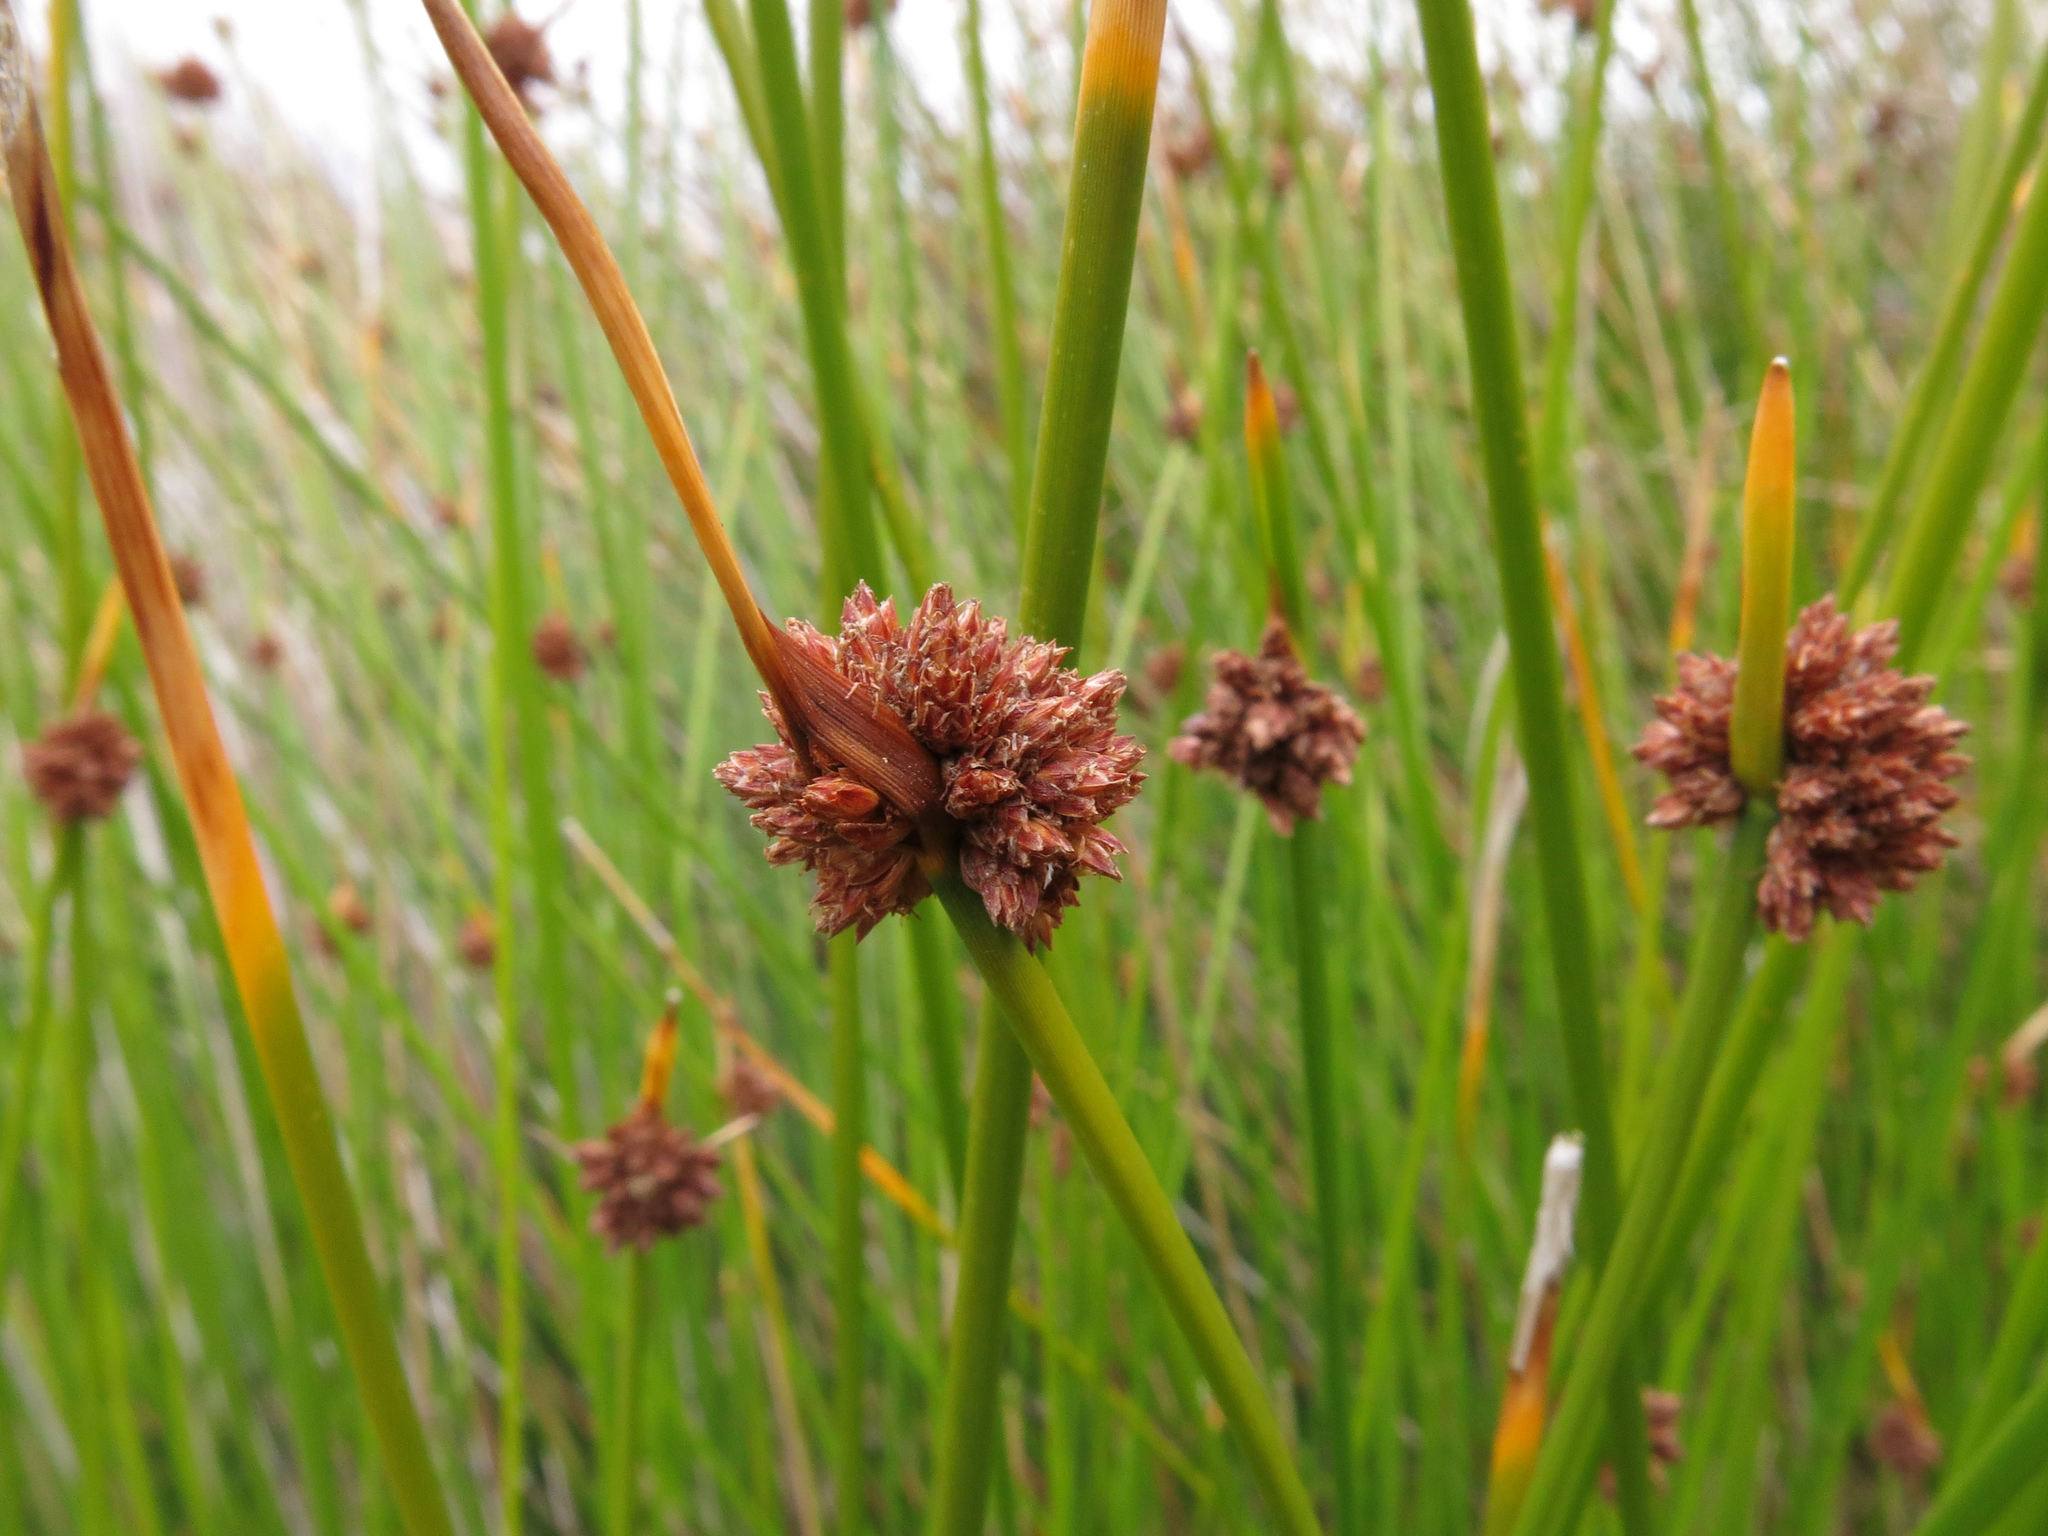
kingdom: Plantae
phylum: Tracheophyta
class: Liliopsida
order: Poales
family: Cyperaceae
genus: Ficinia
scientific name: Ficinia nodosa
